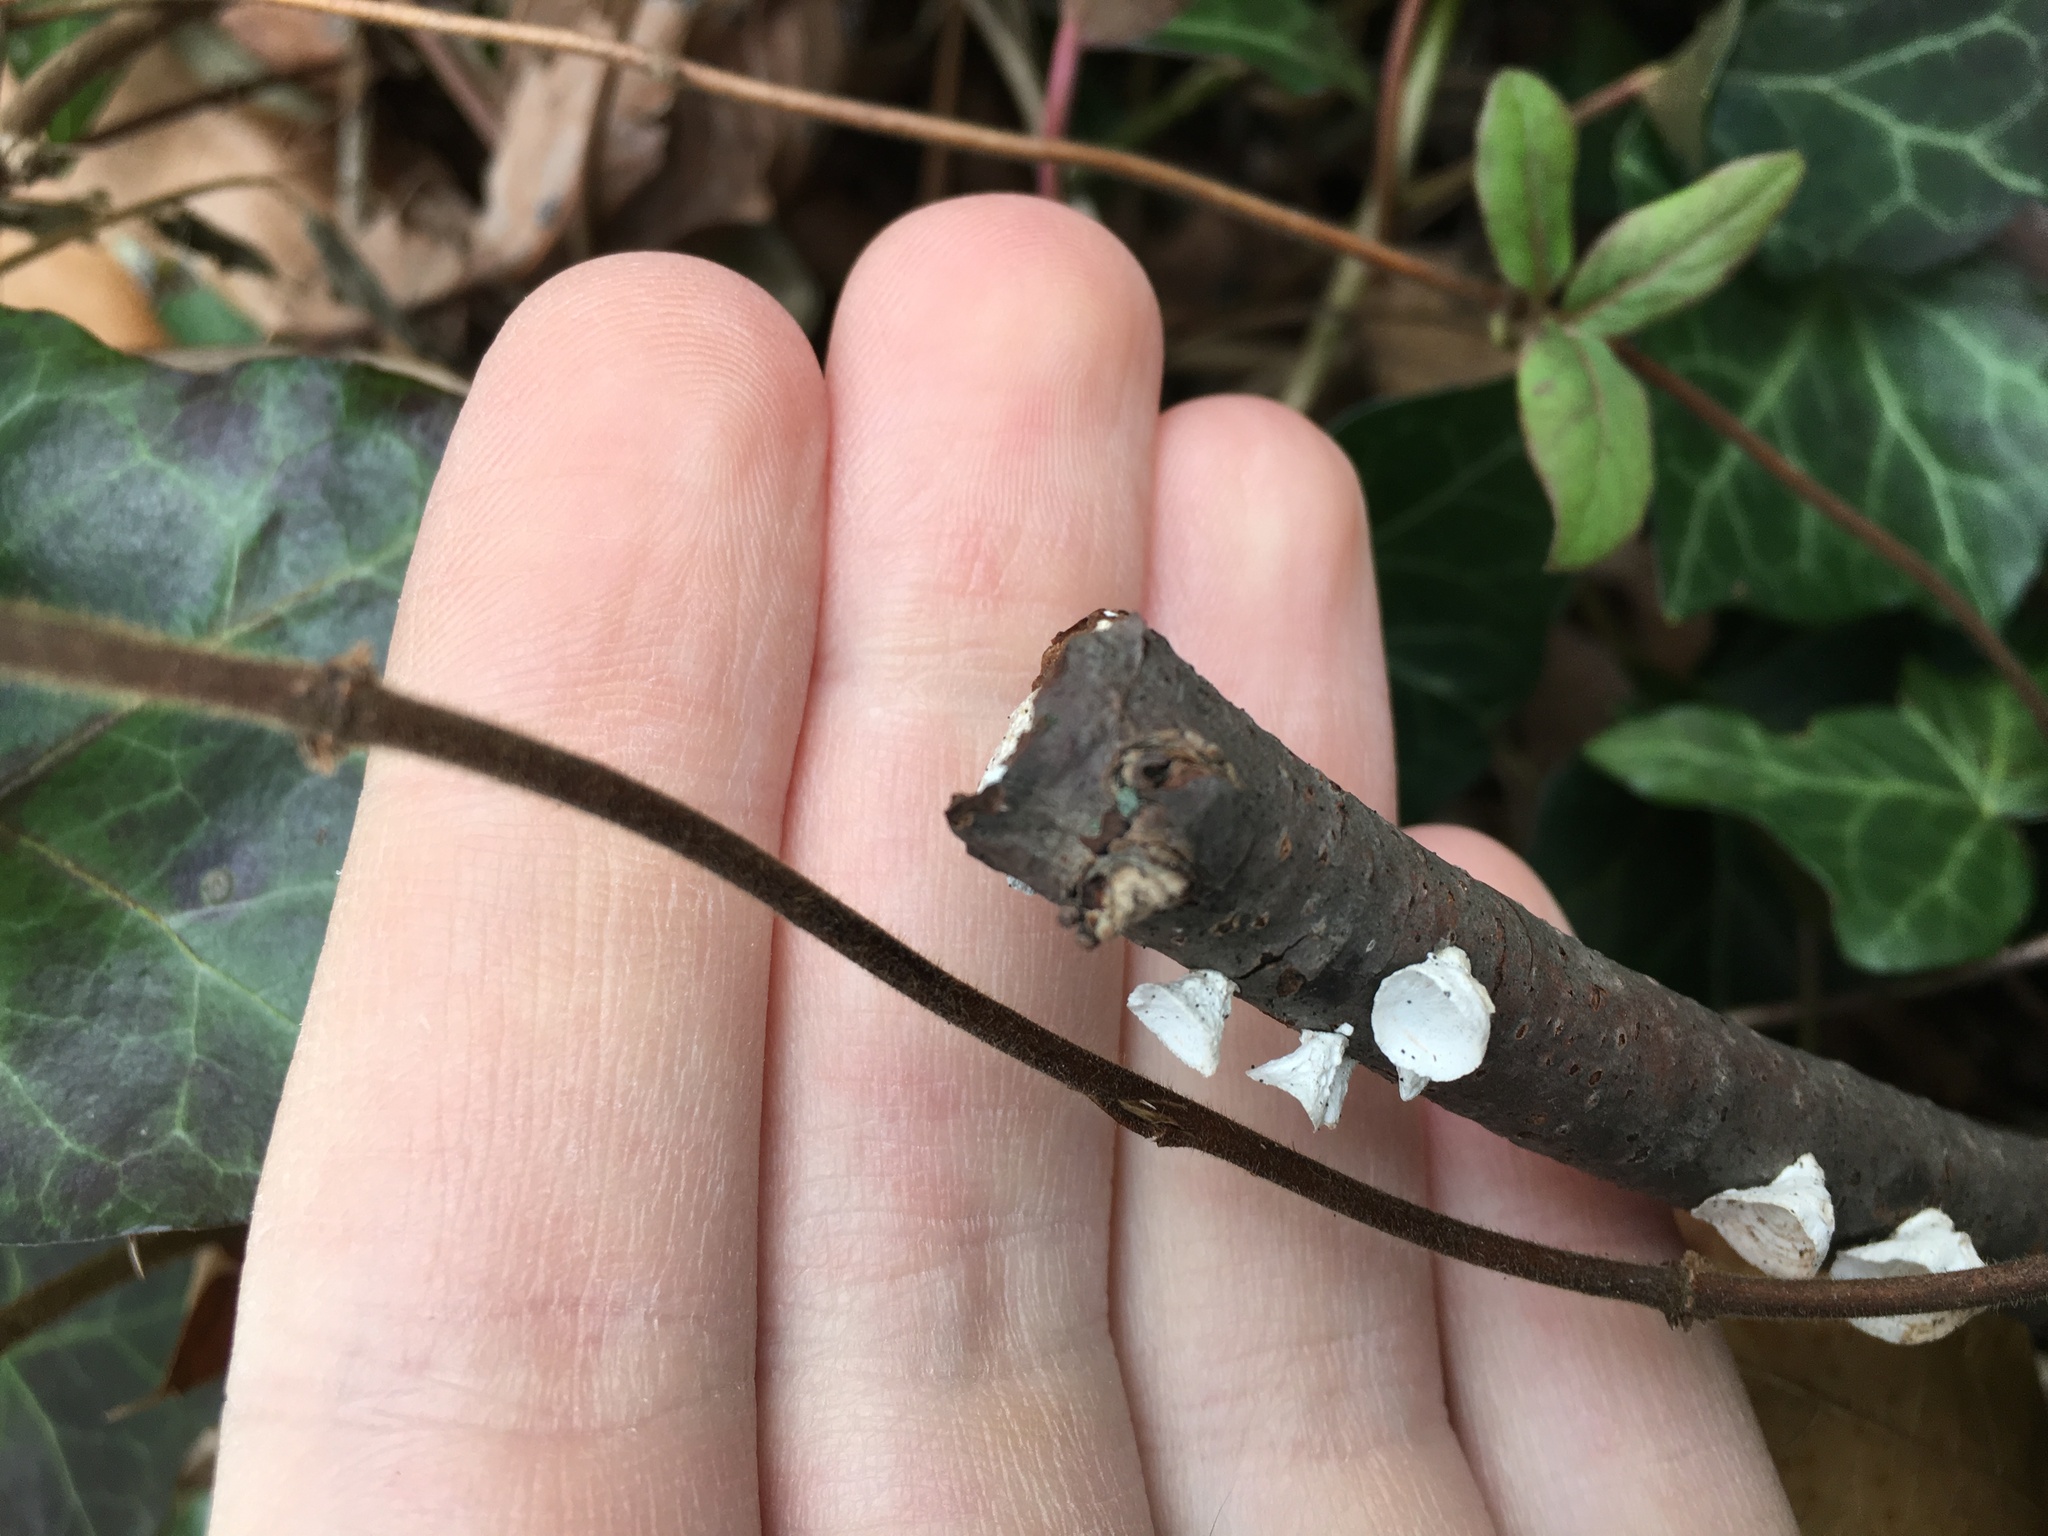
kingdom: Fungi
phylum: Basidiomycota
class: Agaricomycetes
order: Polyporales
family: Polyporaceae
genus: Poronidulus
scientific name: Poronidulus conchifer
